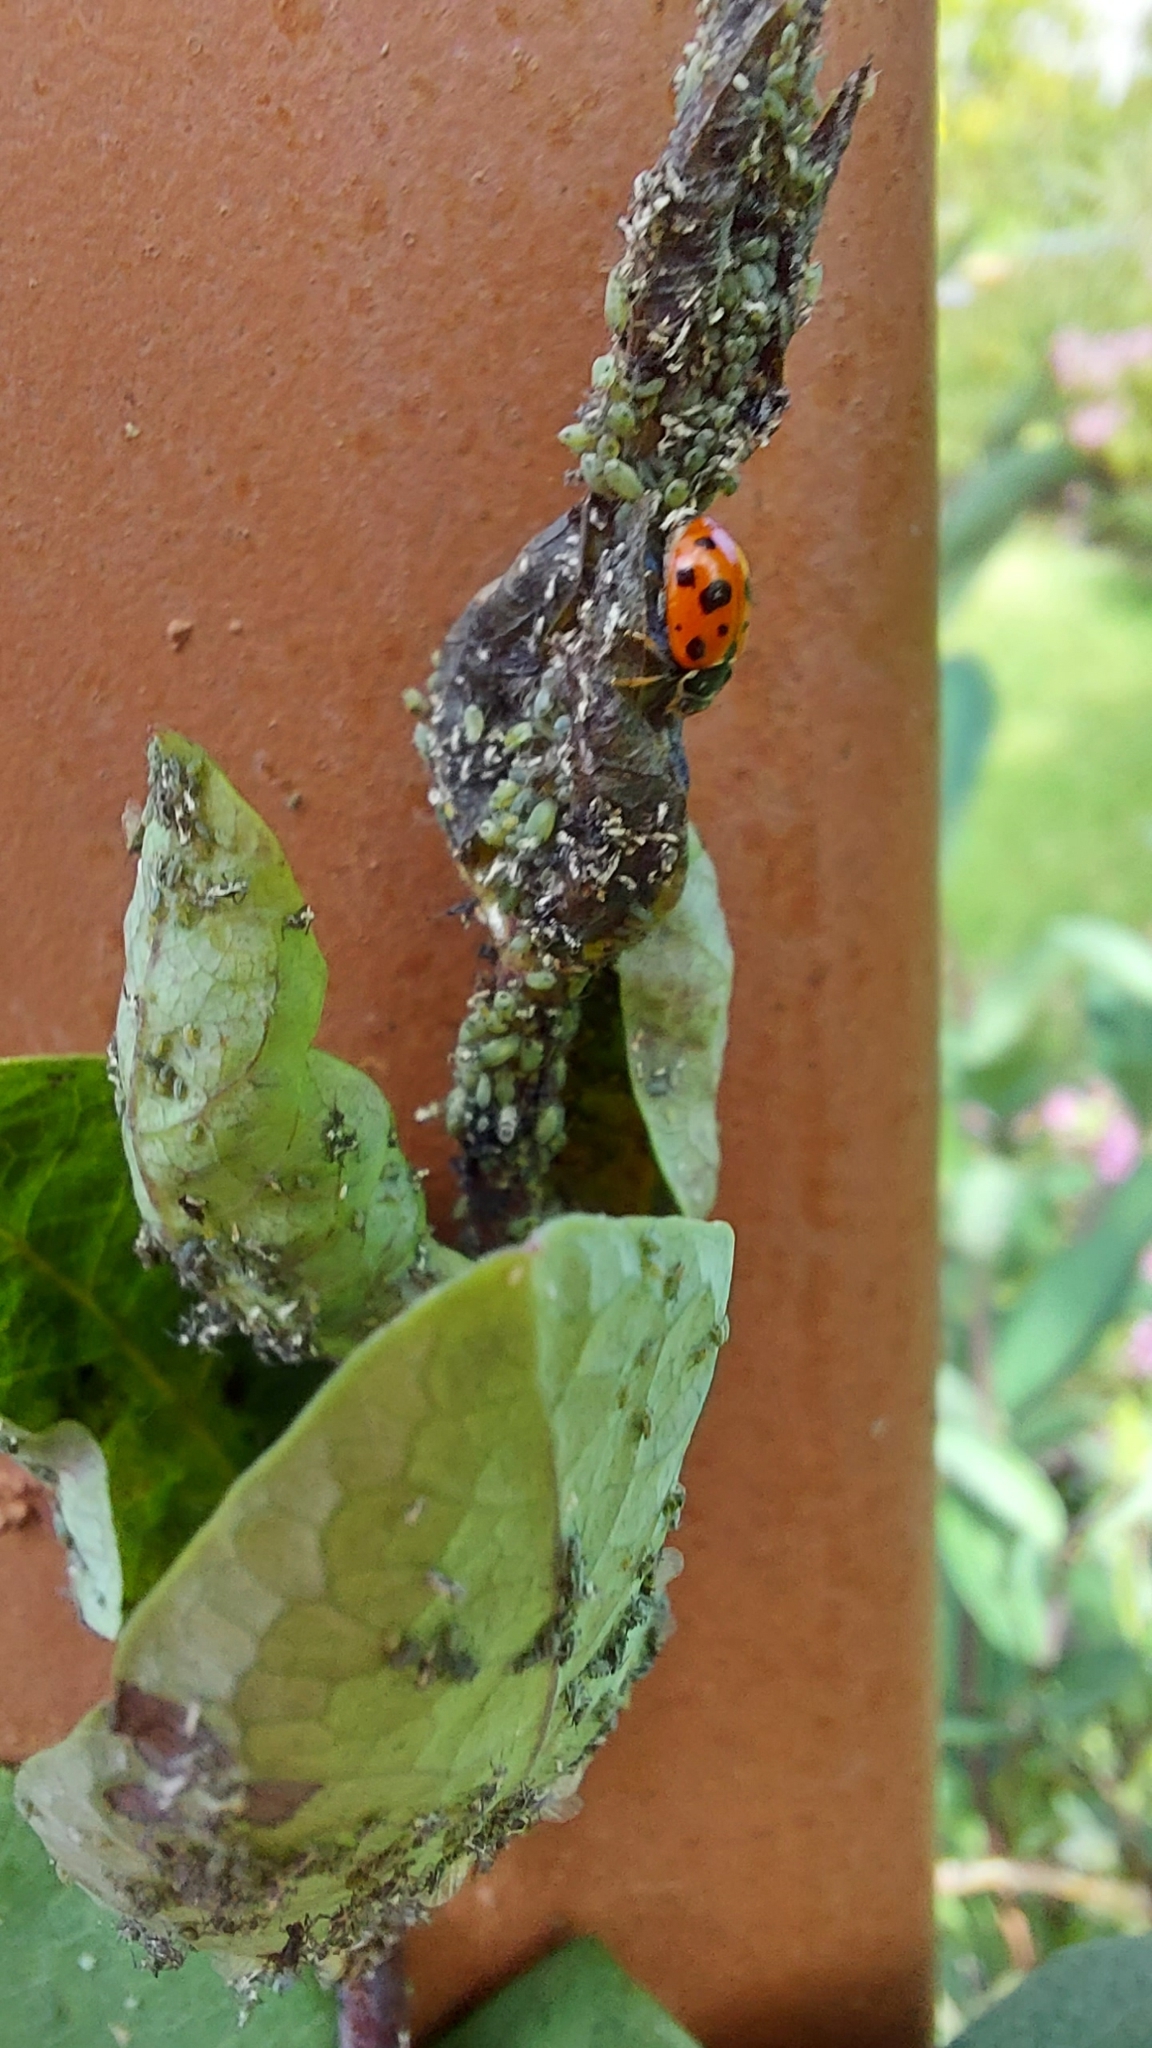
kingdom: Animalia
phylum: Arthropoda
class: Insecta
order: Coleoptera
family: Coccinellidae
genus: Hippodamia
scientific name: Hippodamia variegata
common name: Ladybird beetle
